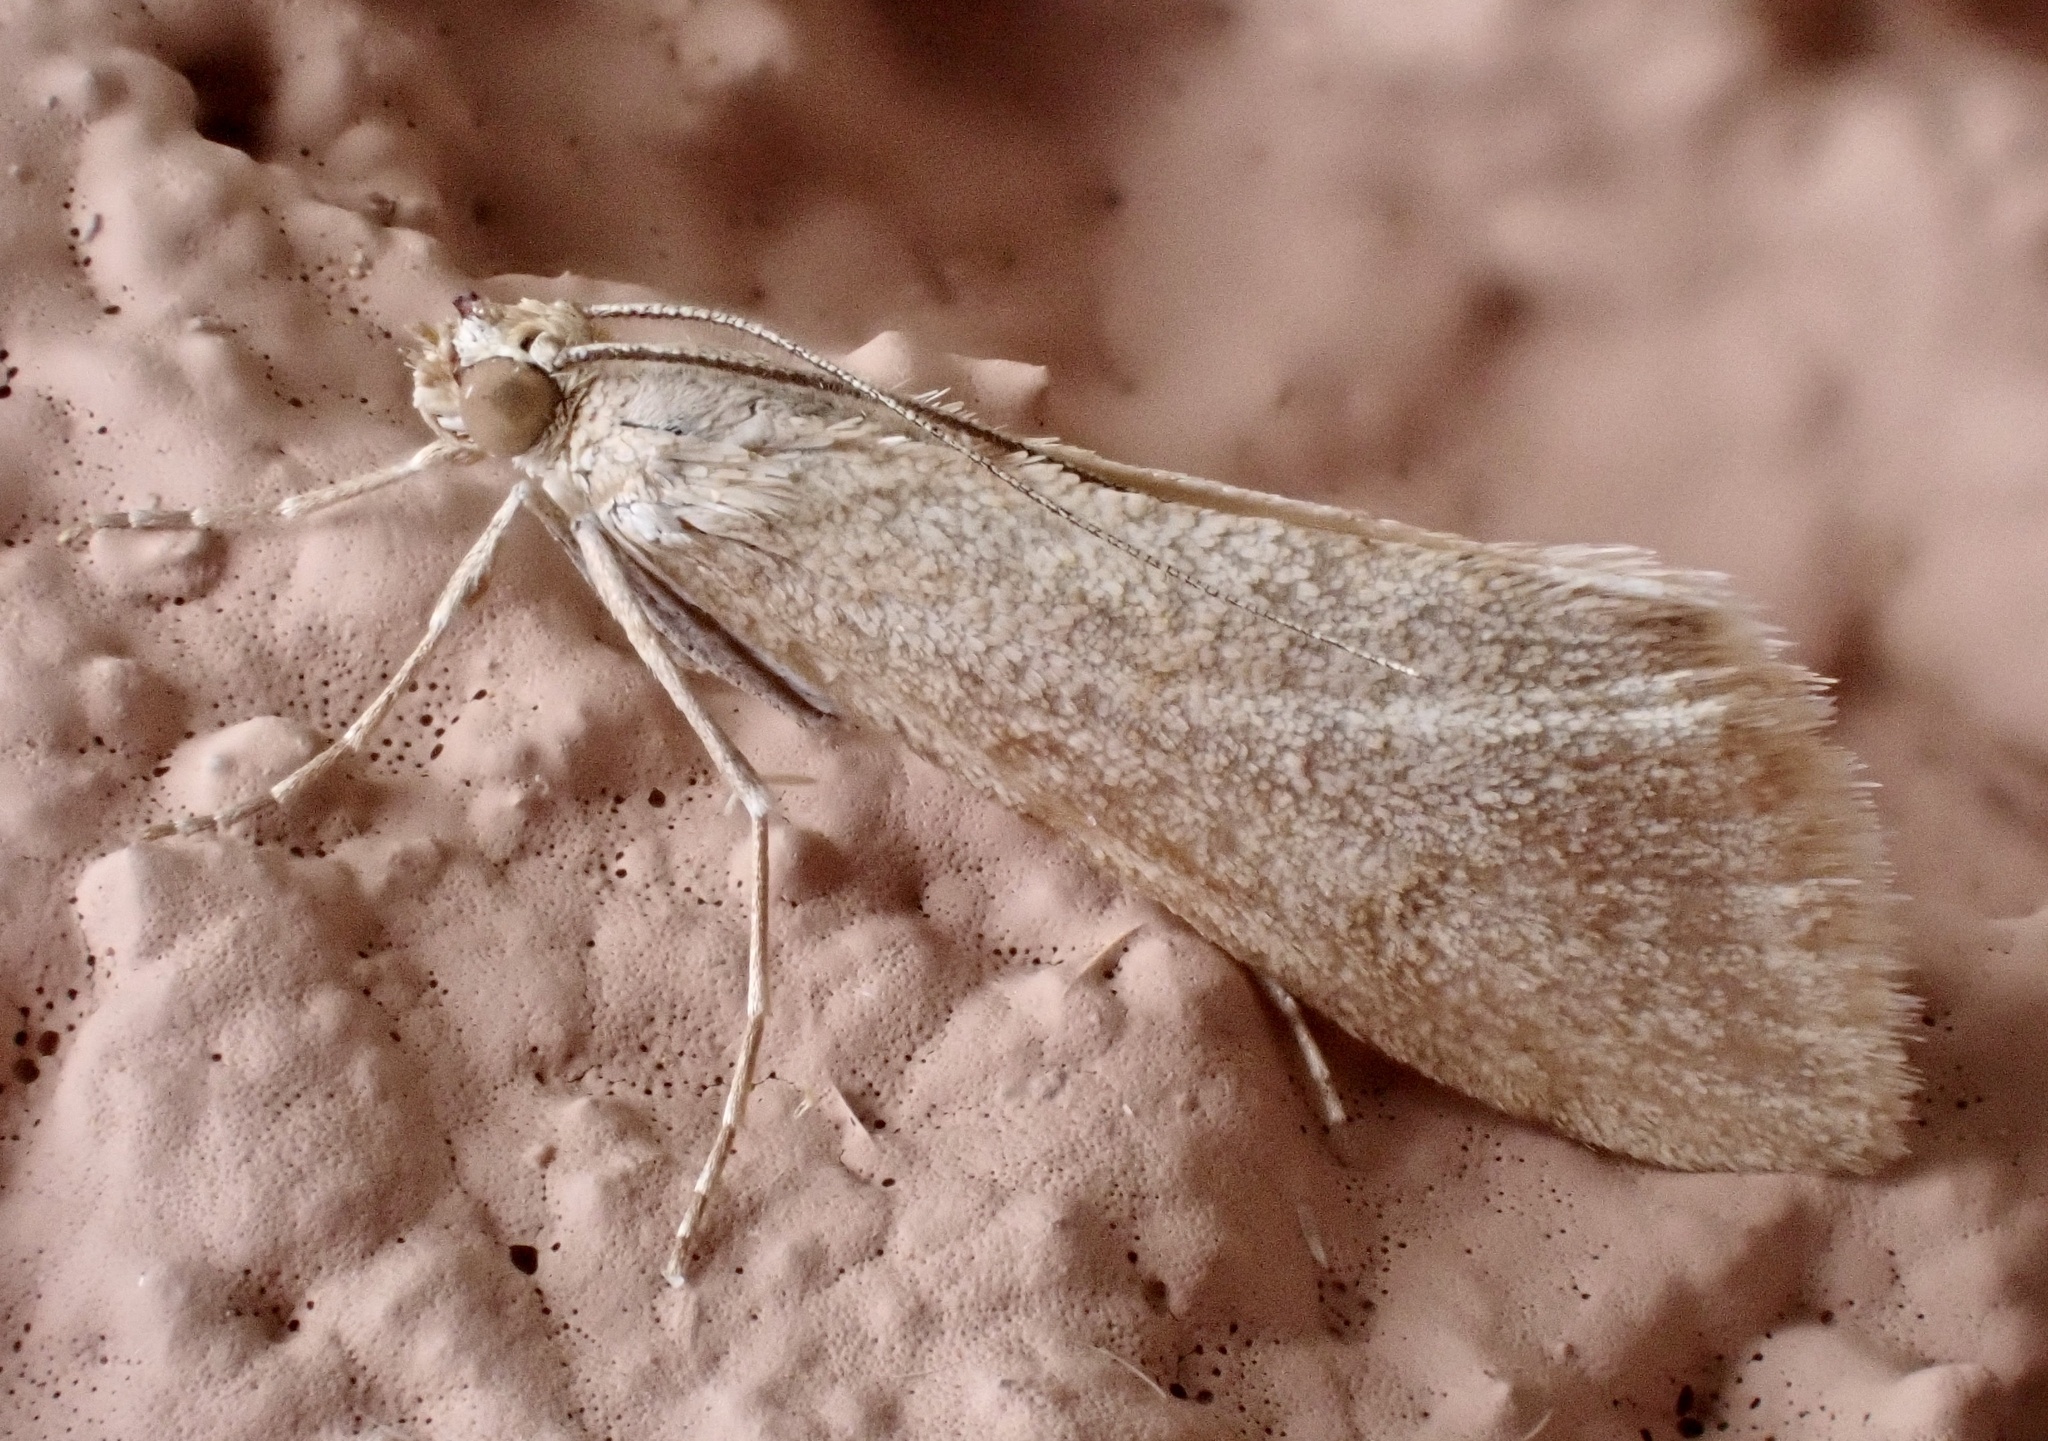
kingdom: Animalia
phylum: Arthropoda
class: Insecta
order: Lepidoptera
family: Crambidae
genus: Cornifrons
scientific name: Cornifrons ulceratalis
